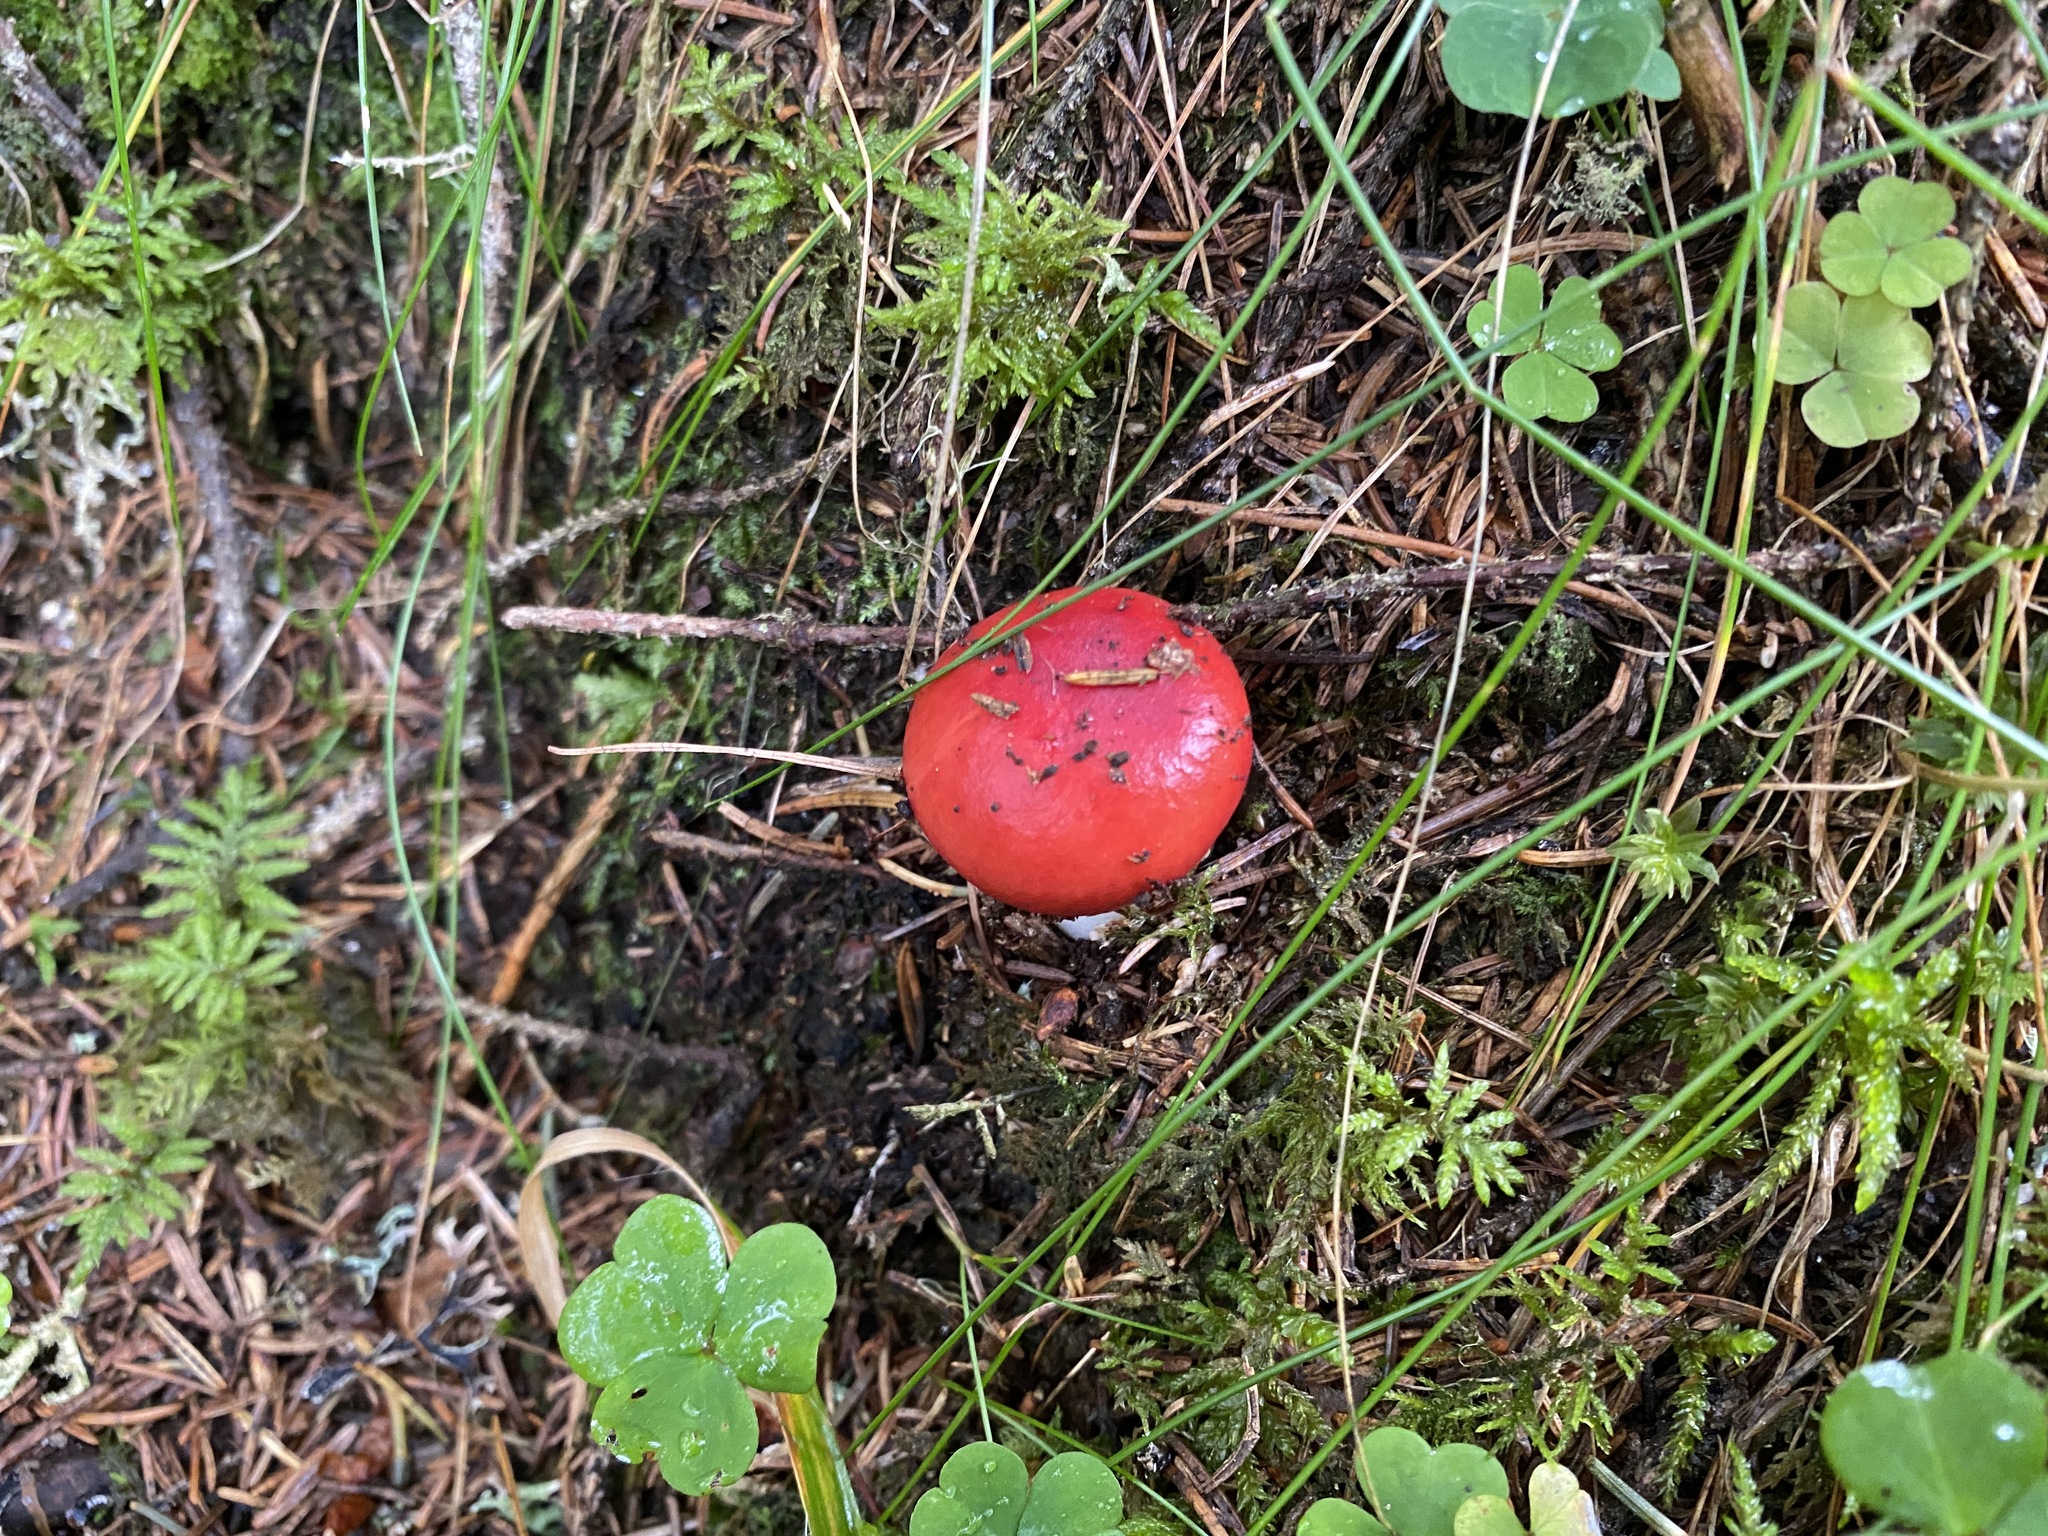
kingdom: Fungi
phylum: Basidiomycota
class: Agaricomycetes
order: Russulales
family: Russulaceae
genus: Russula
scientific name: Russula
